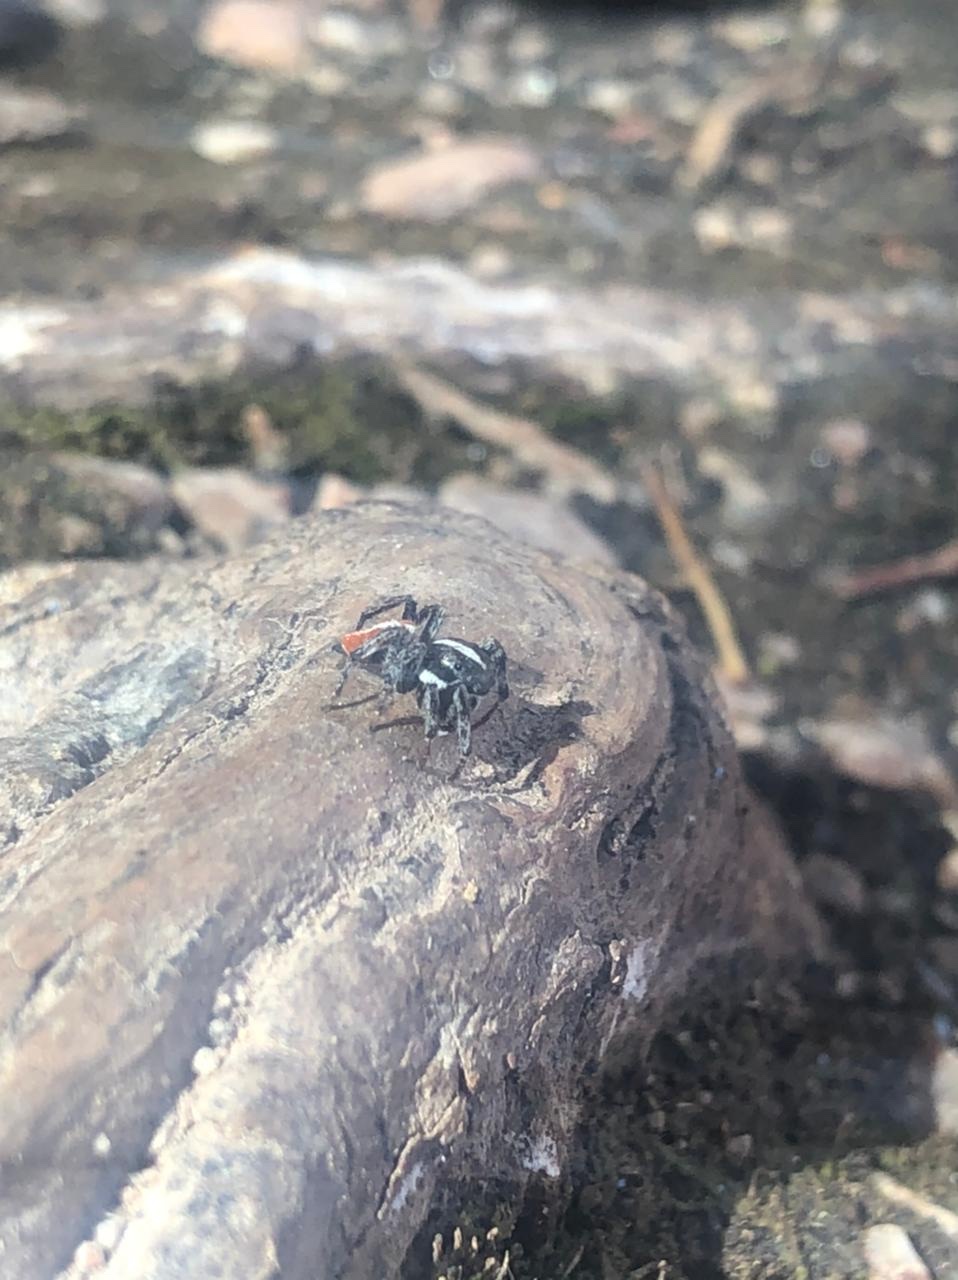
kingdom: Animalia
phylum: Arthropoda
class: Arachnida
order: Araneae
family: Salticidae
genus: Phiale
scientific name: Phiale roburifoliata
